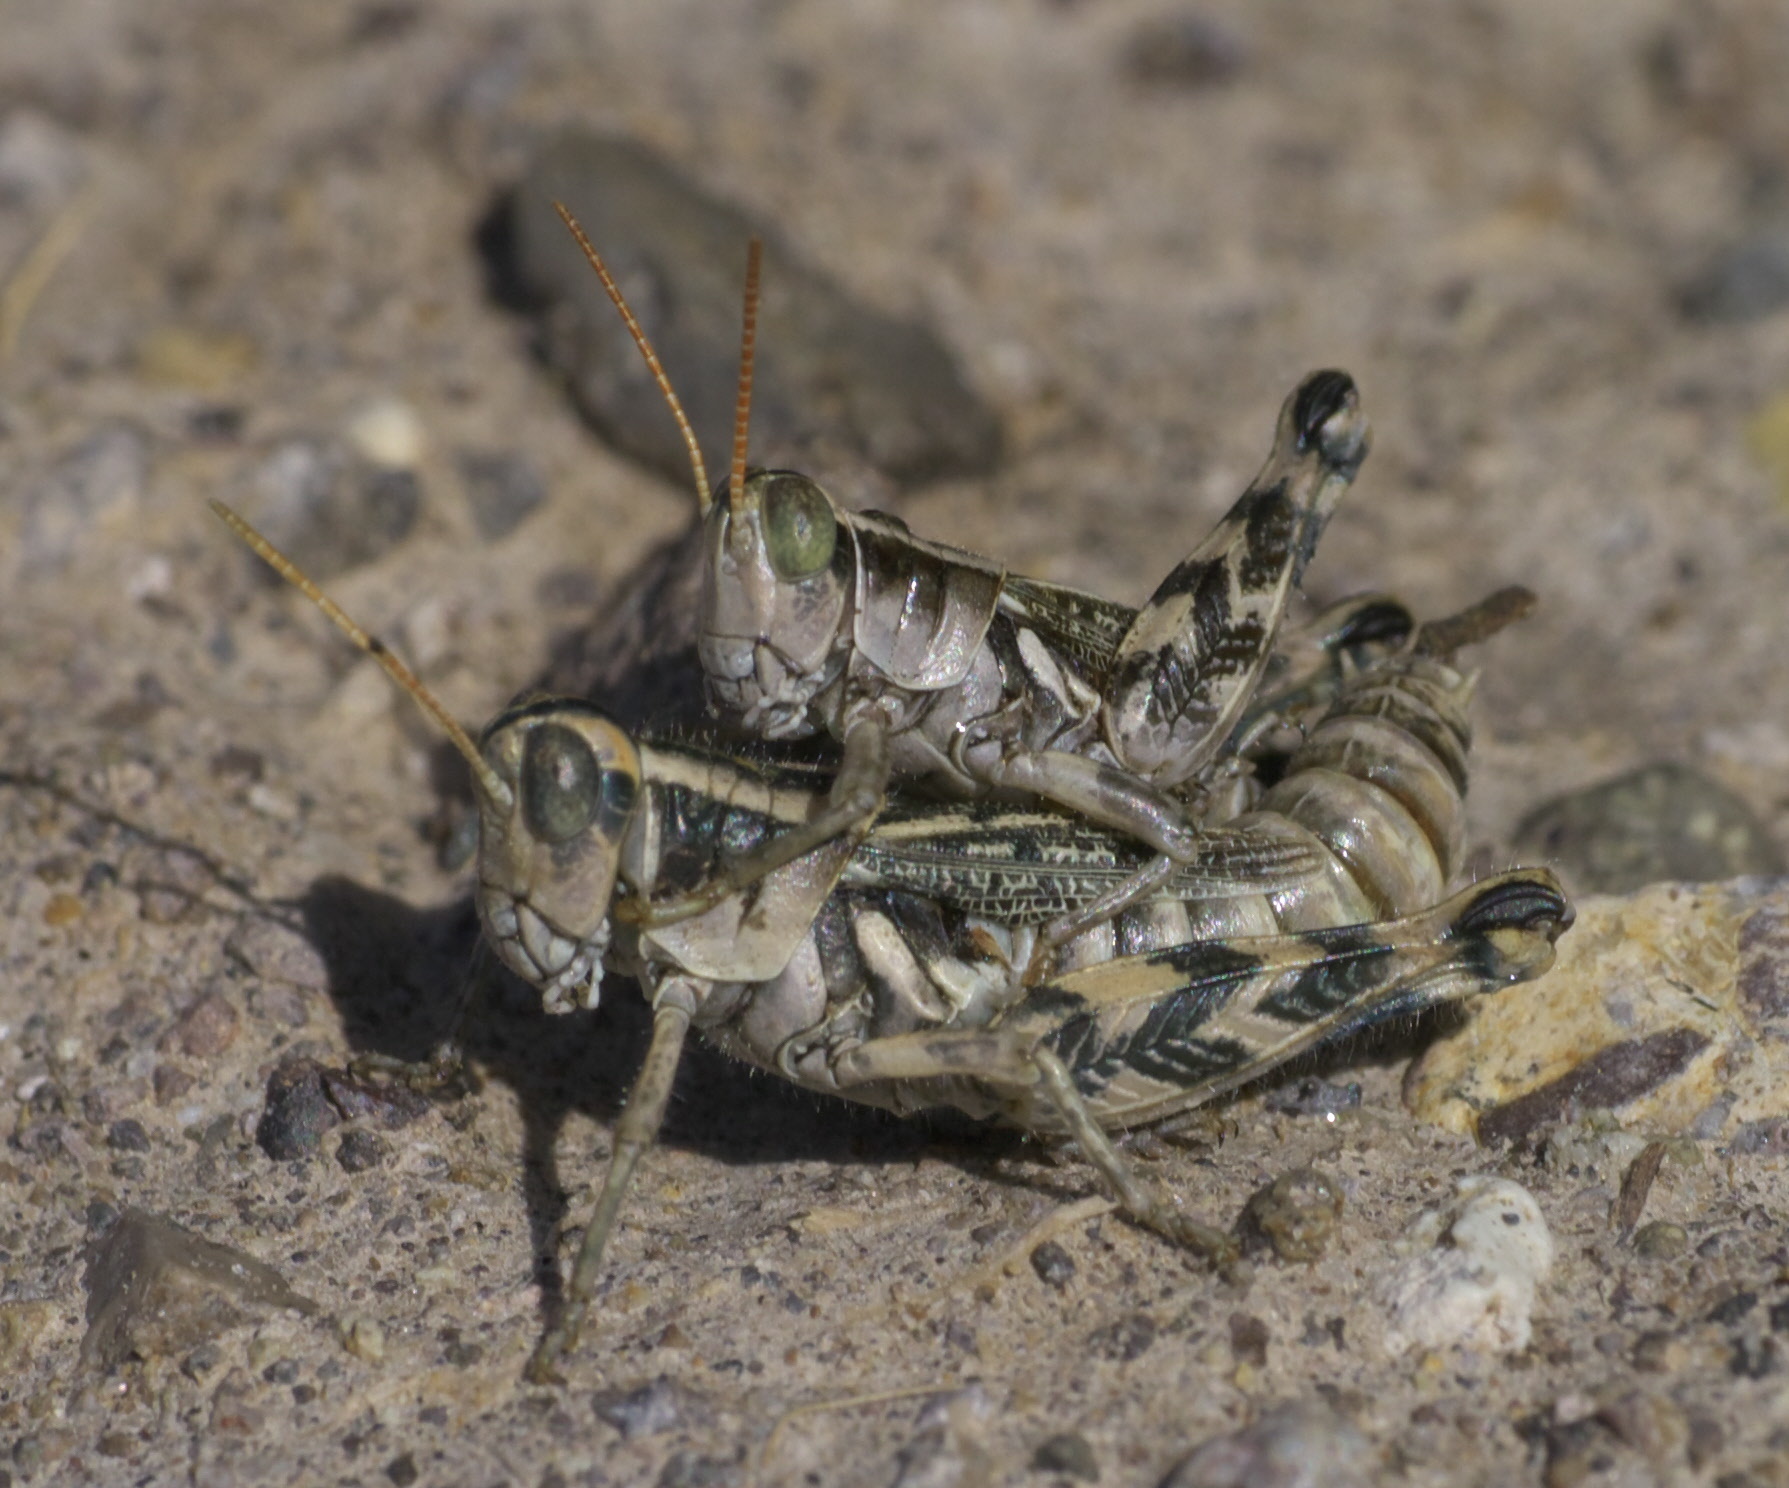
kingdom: Animalia
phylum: Arthropoda
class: Insecta
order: Orthoptera
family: Acrididae
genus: Aeoloplides
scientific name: Aeoloplides turnbulli
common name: Russianthistle grasshopper
